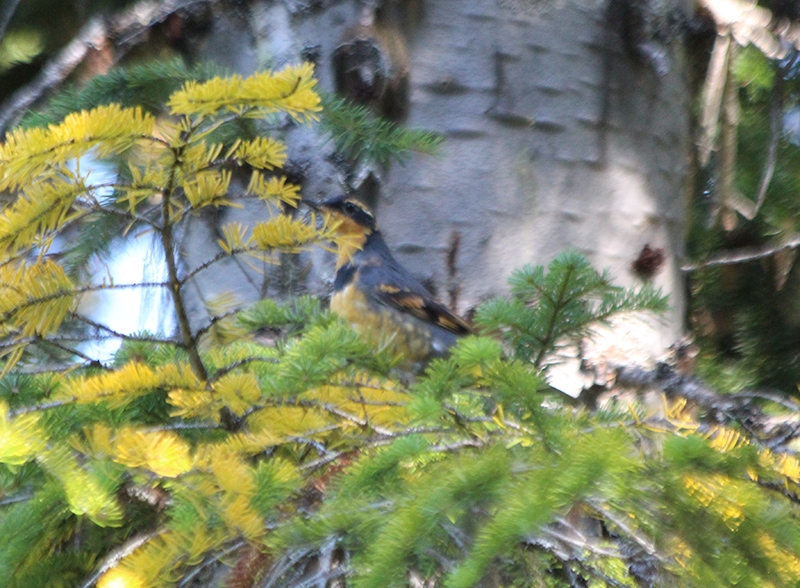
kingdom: Animalia
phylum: Chordata
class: Aves
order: Passeriformes
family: Turdidae
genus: Ixoreus
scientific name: Ixoreus naevius
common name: Varied thrush
